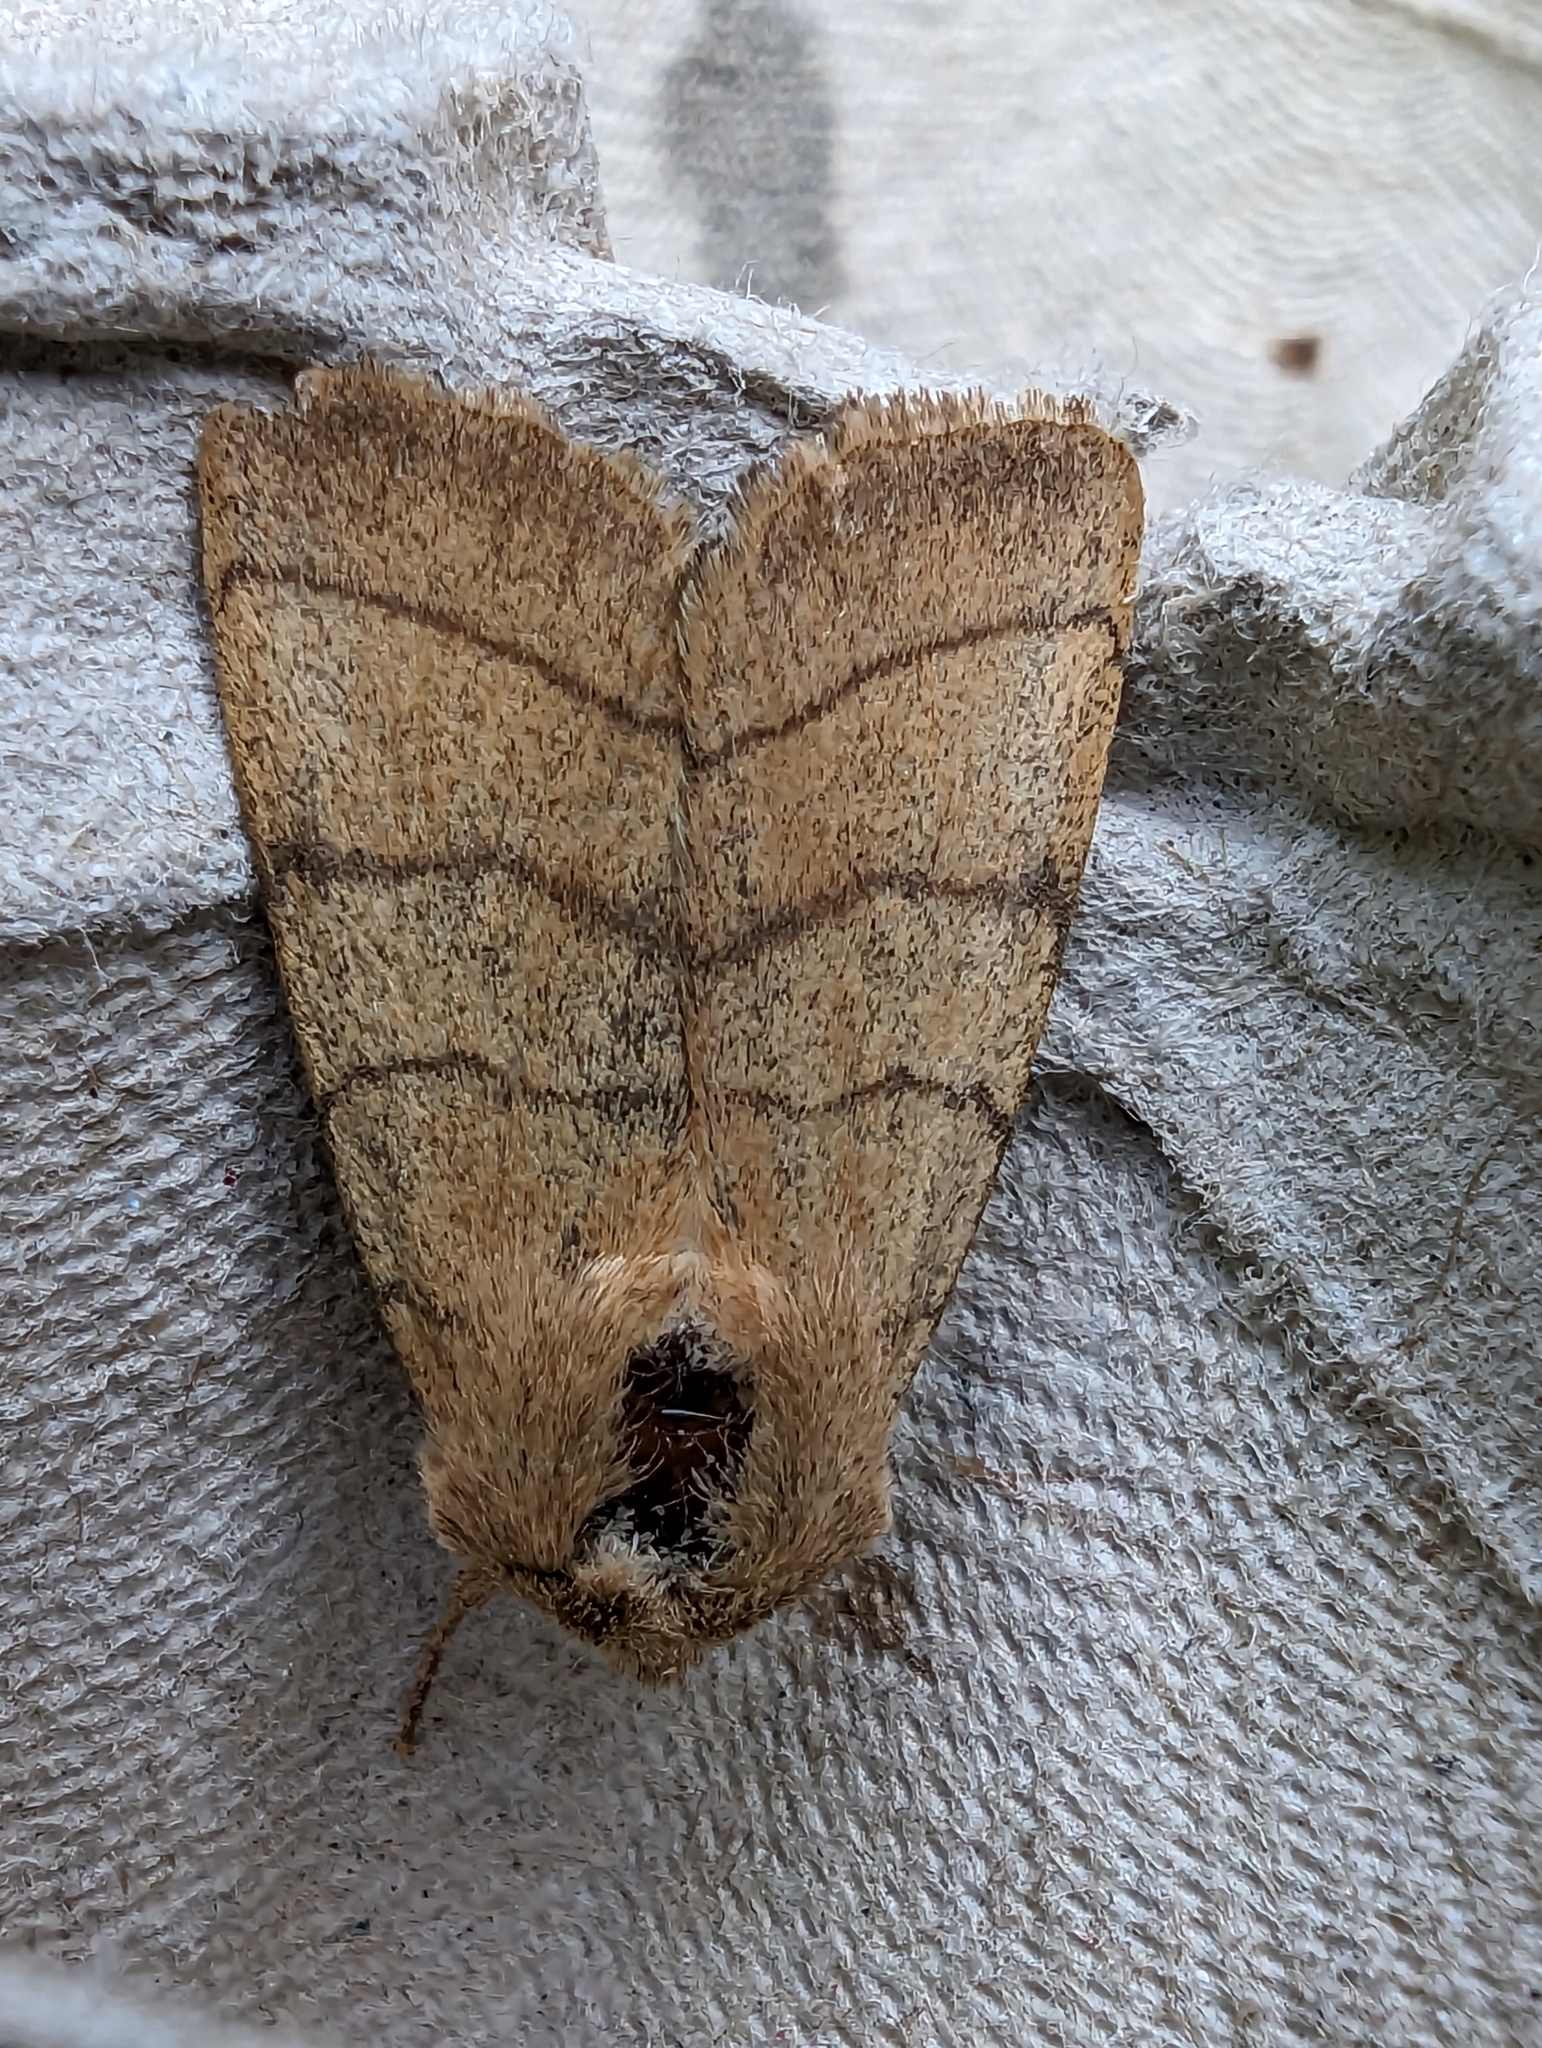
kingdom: Animalia
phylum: Arthropoda
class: Insecta
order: Lepidoptera
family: Noctuidae
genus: Charanyca
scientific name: Charanyca trigrammica
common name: Treble lines
